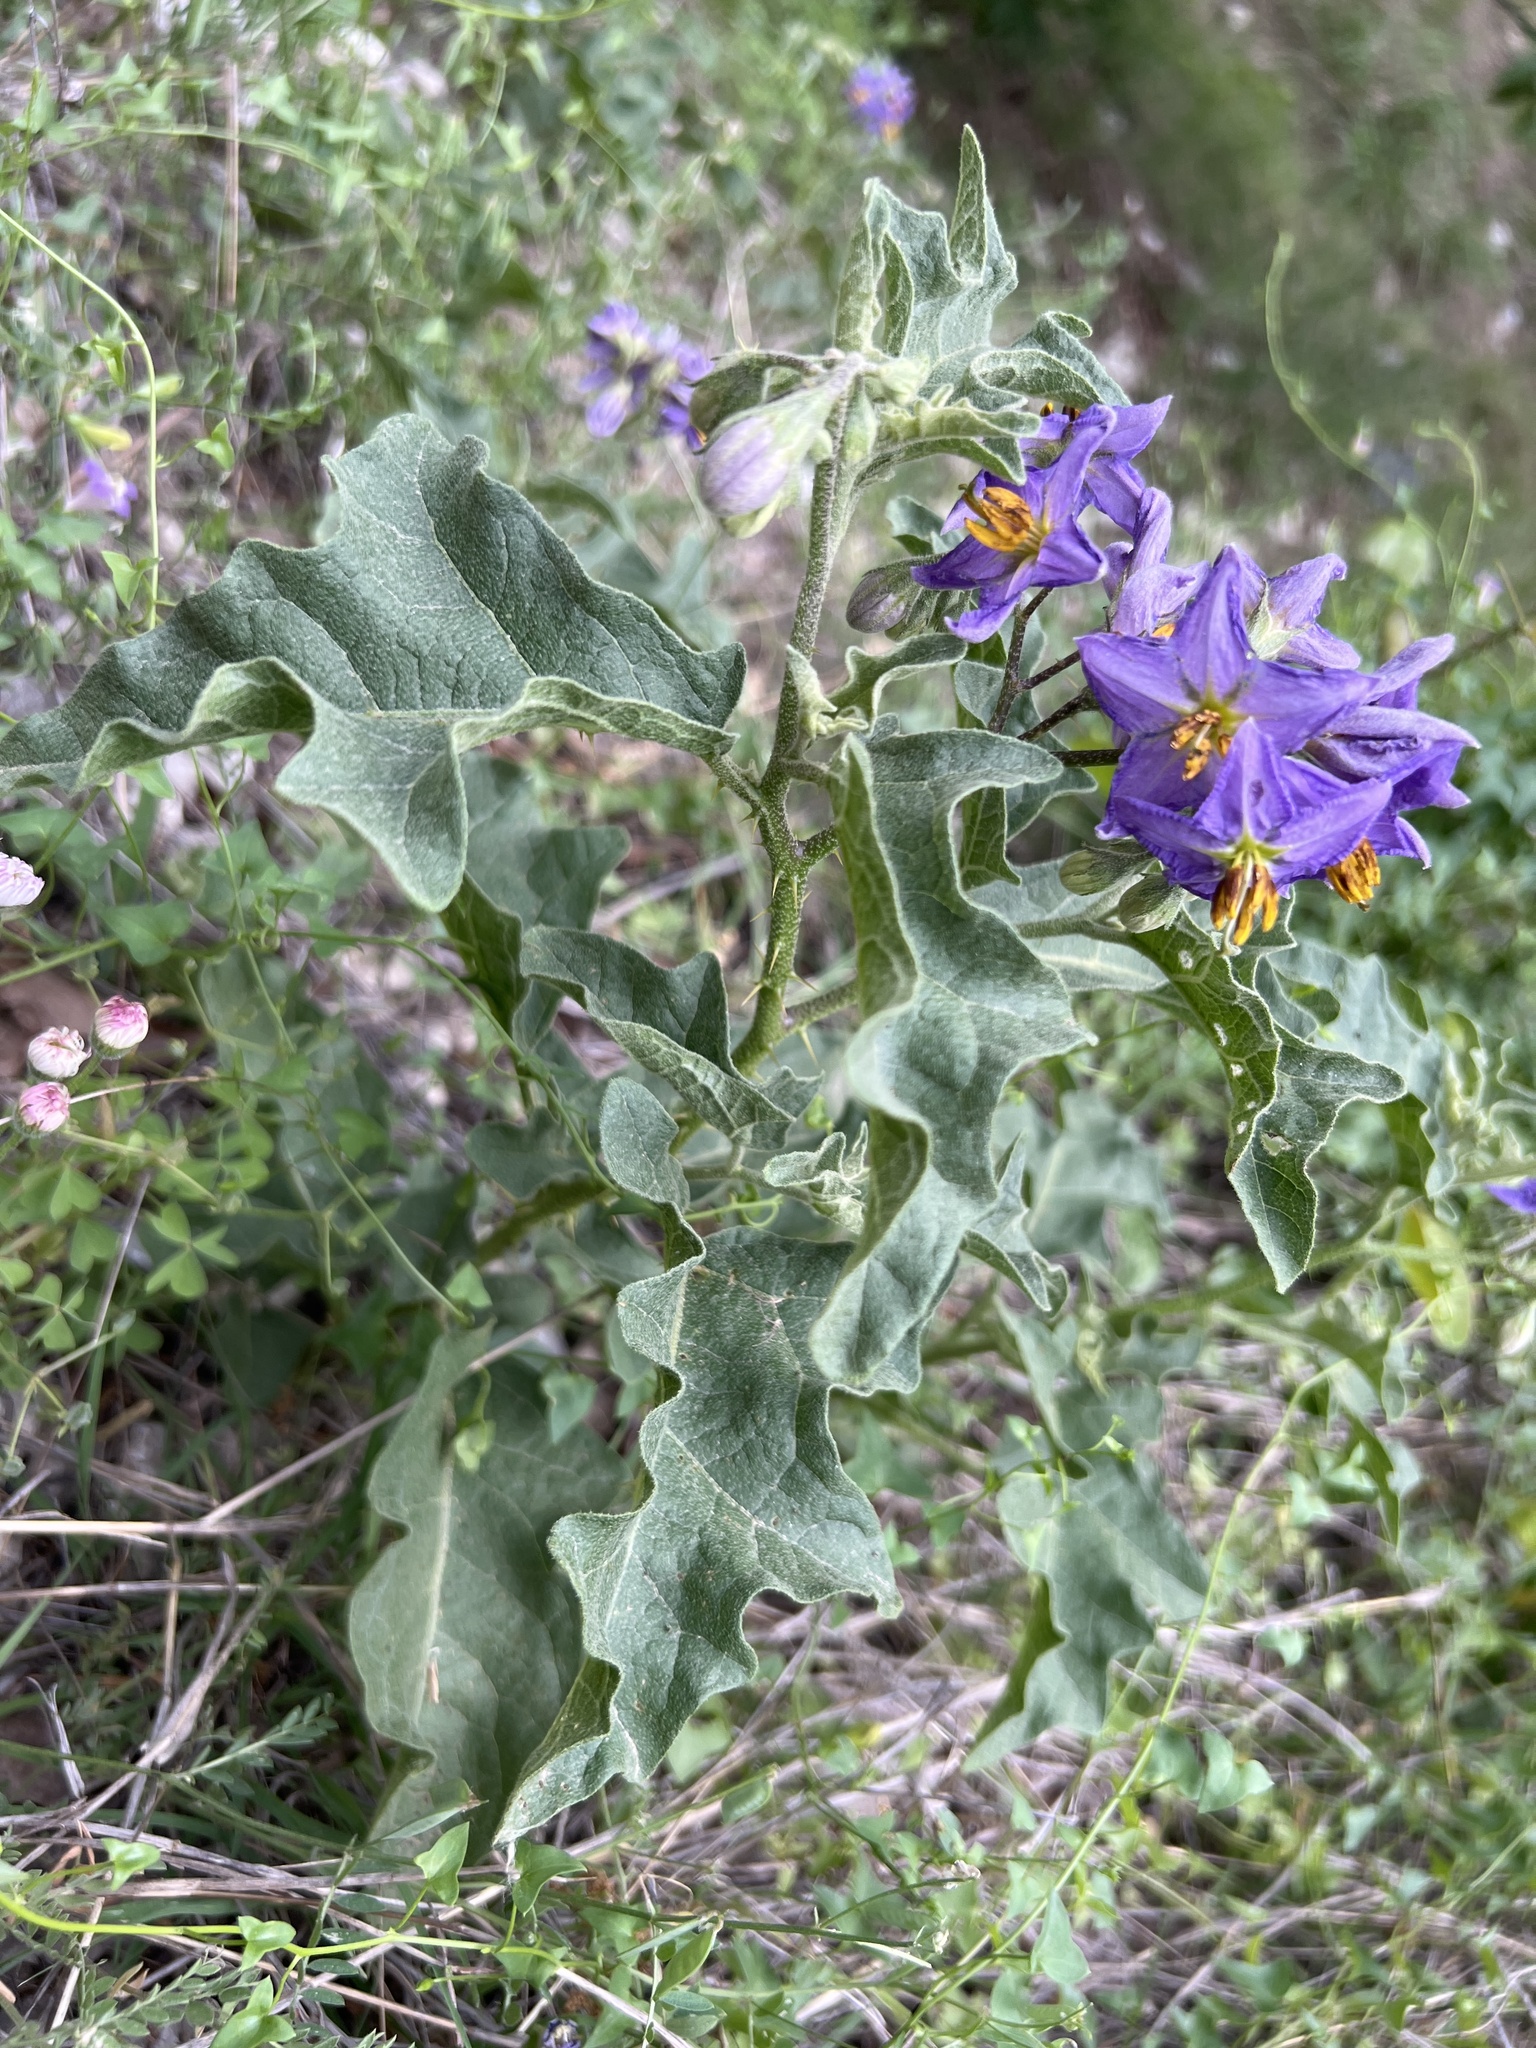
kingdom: Plantae
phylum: Tracheophyta
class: Magnoliopsida
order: Solanales
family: Solanaceae
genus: Solanum
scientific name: Solanum dimidiatum
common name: Carolina horse-nettle
